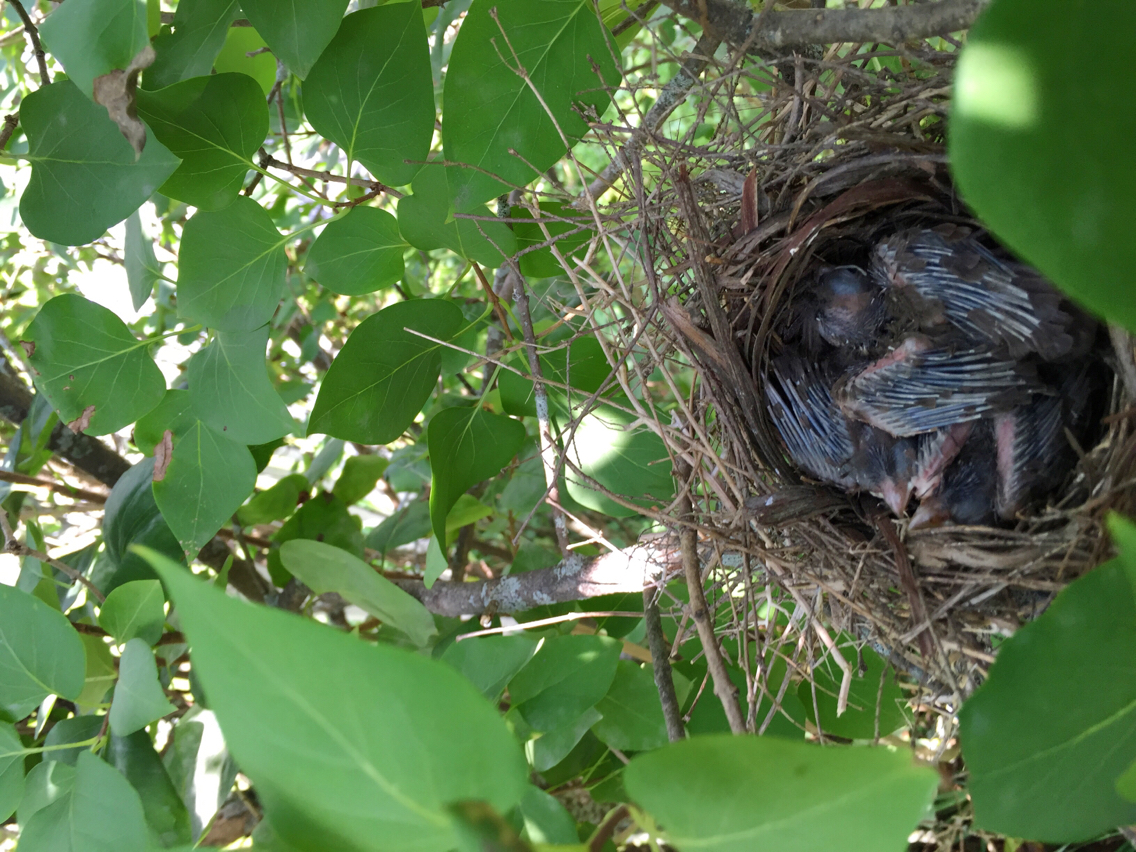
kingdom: Animalia
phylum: Chordata
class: Aves
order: Passeriformes
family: Cardinalidae
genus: Cardinalis
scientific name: Cardinalis cardinalis
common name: Northern cardinal
